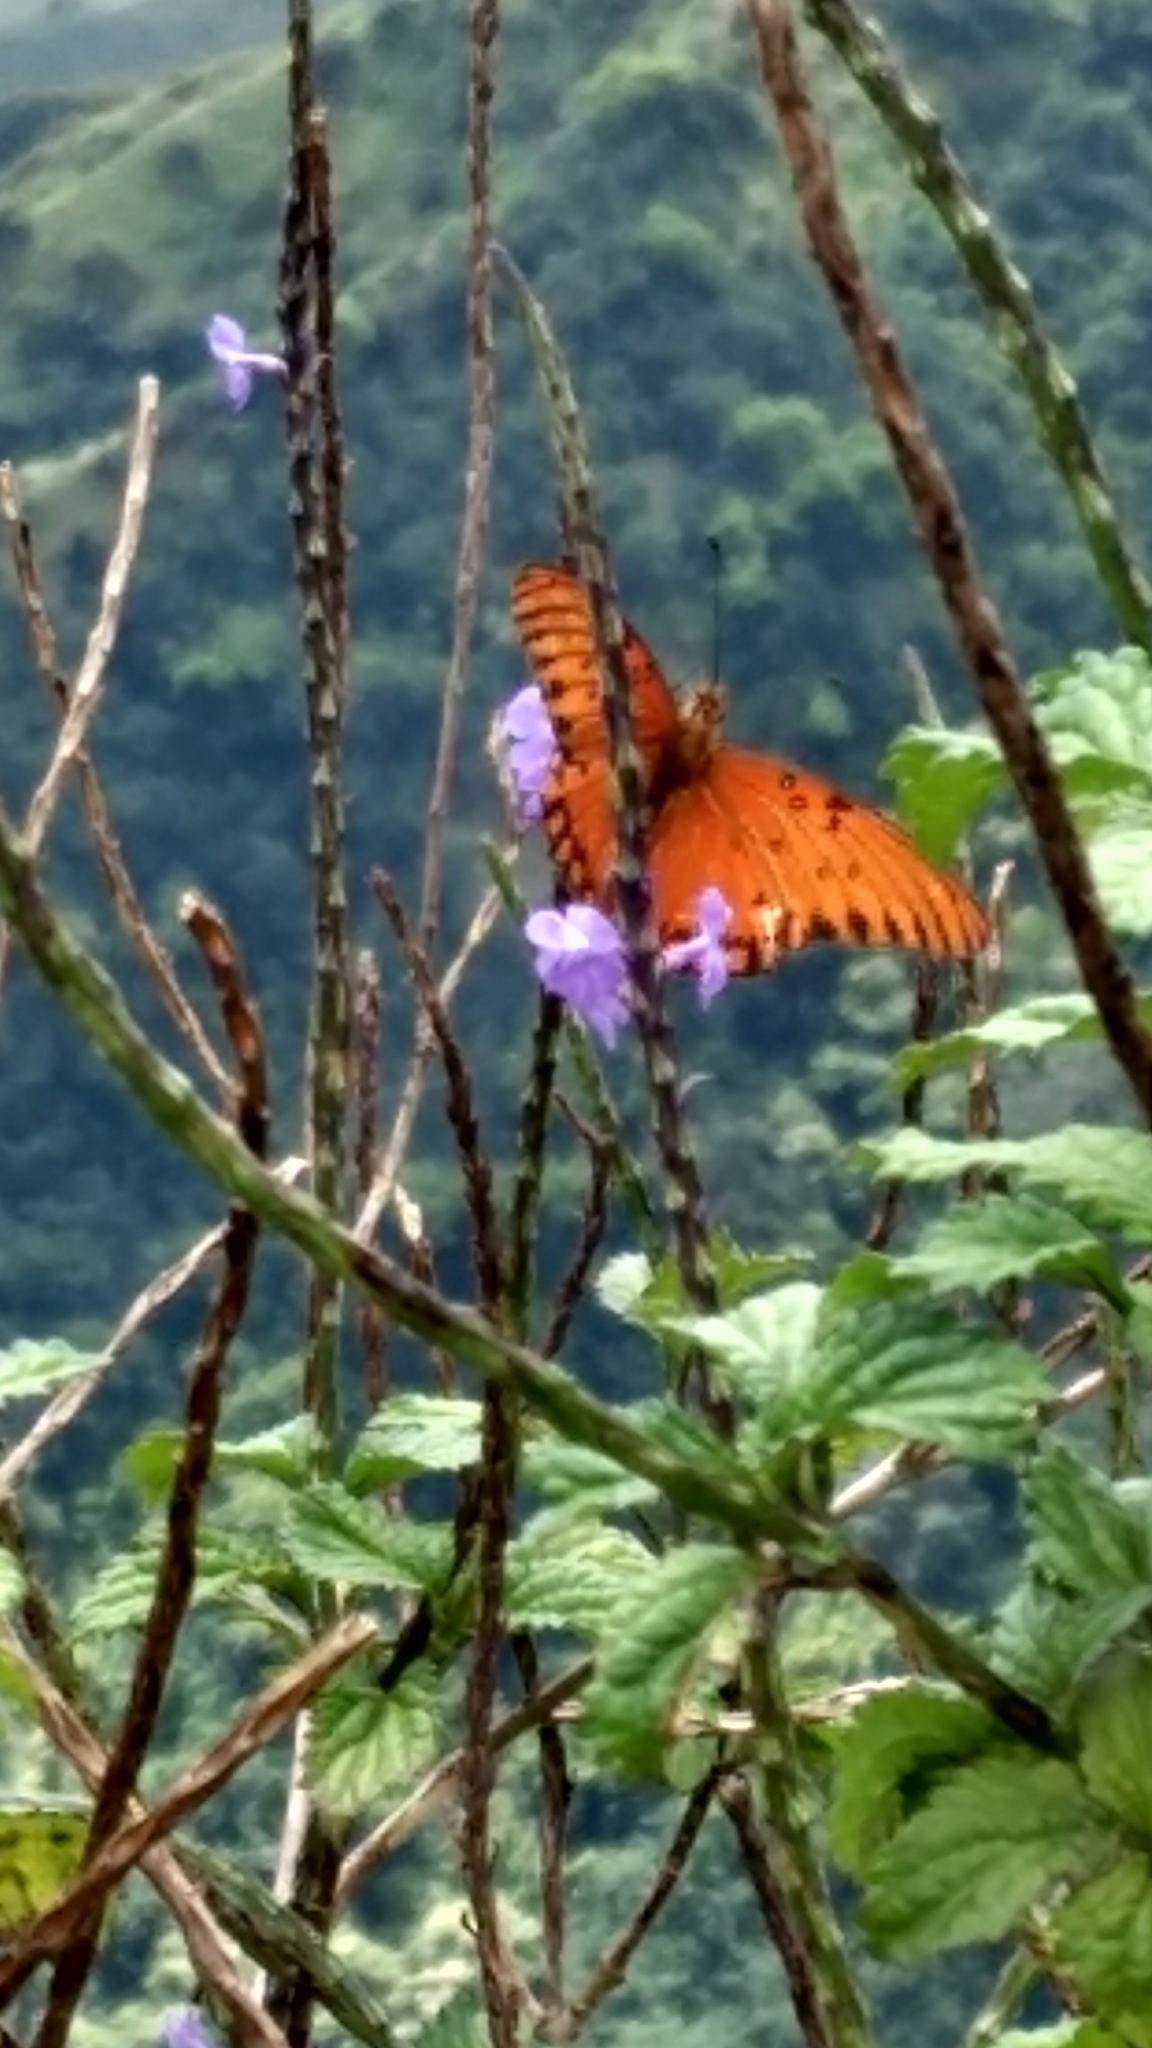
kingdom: Animalia
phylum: Arthropoda
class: Insecta
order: Lepidoptera
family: Nymphalidae
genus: Dione
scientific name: Dione vanillae
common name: Gulf fritillary
